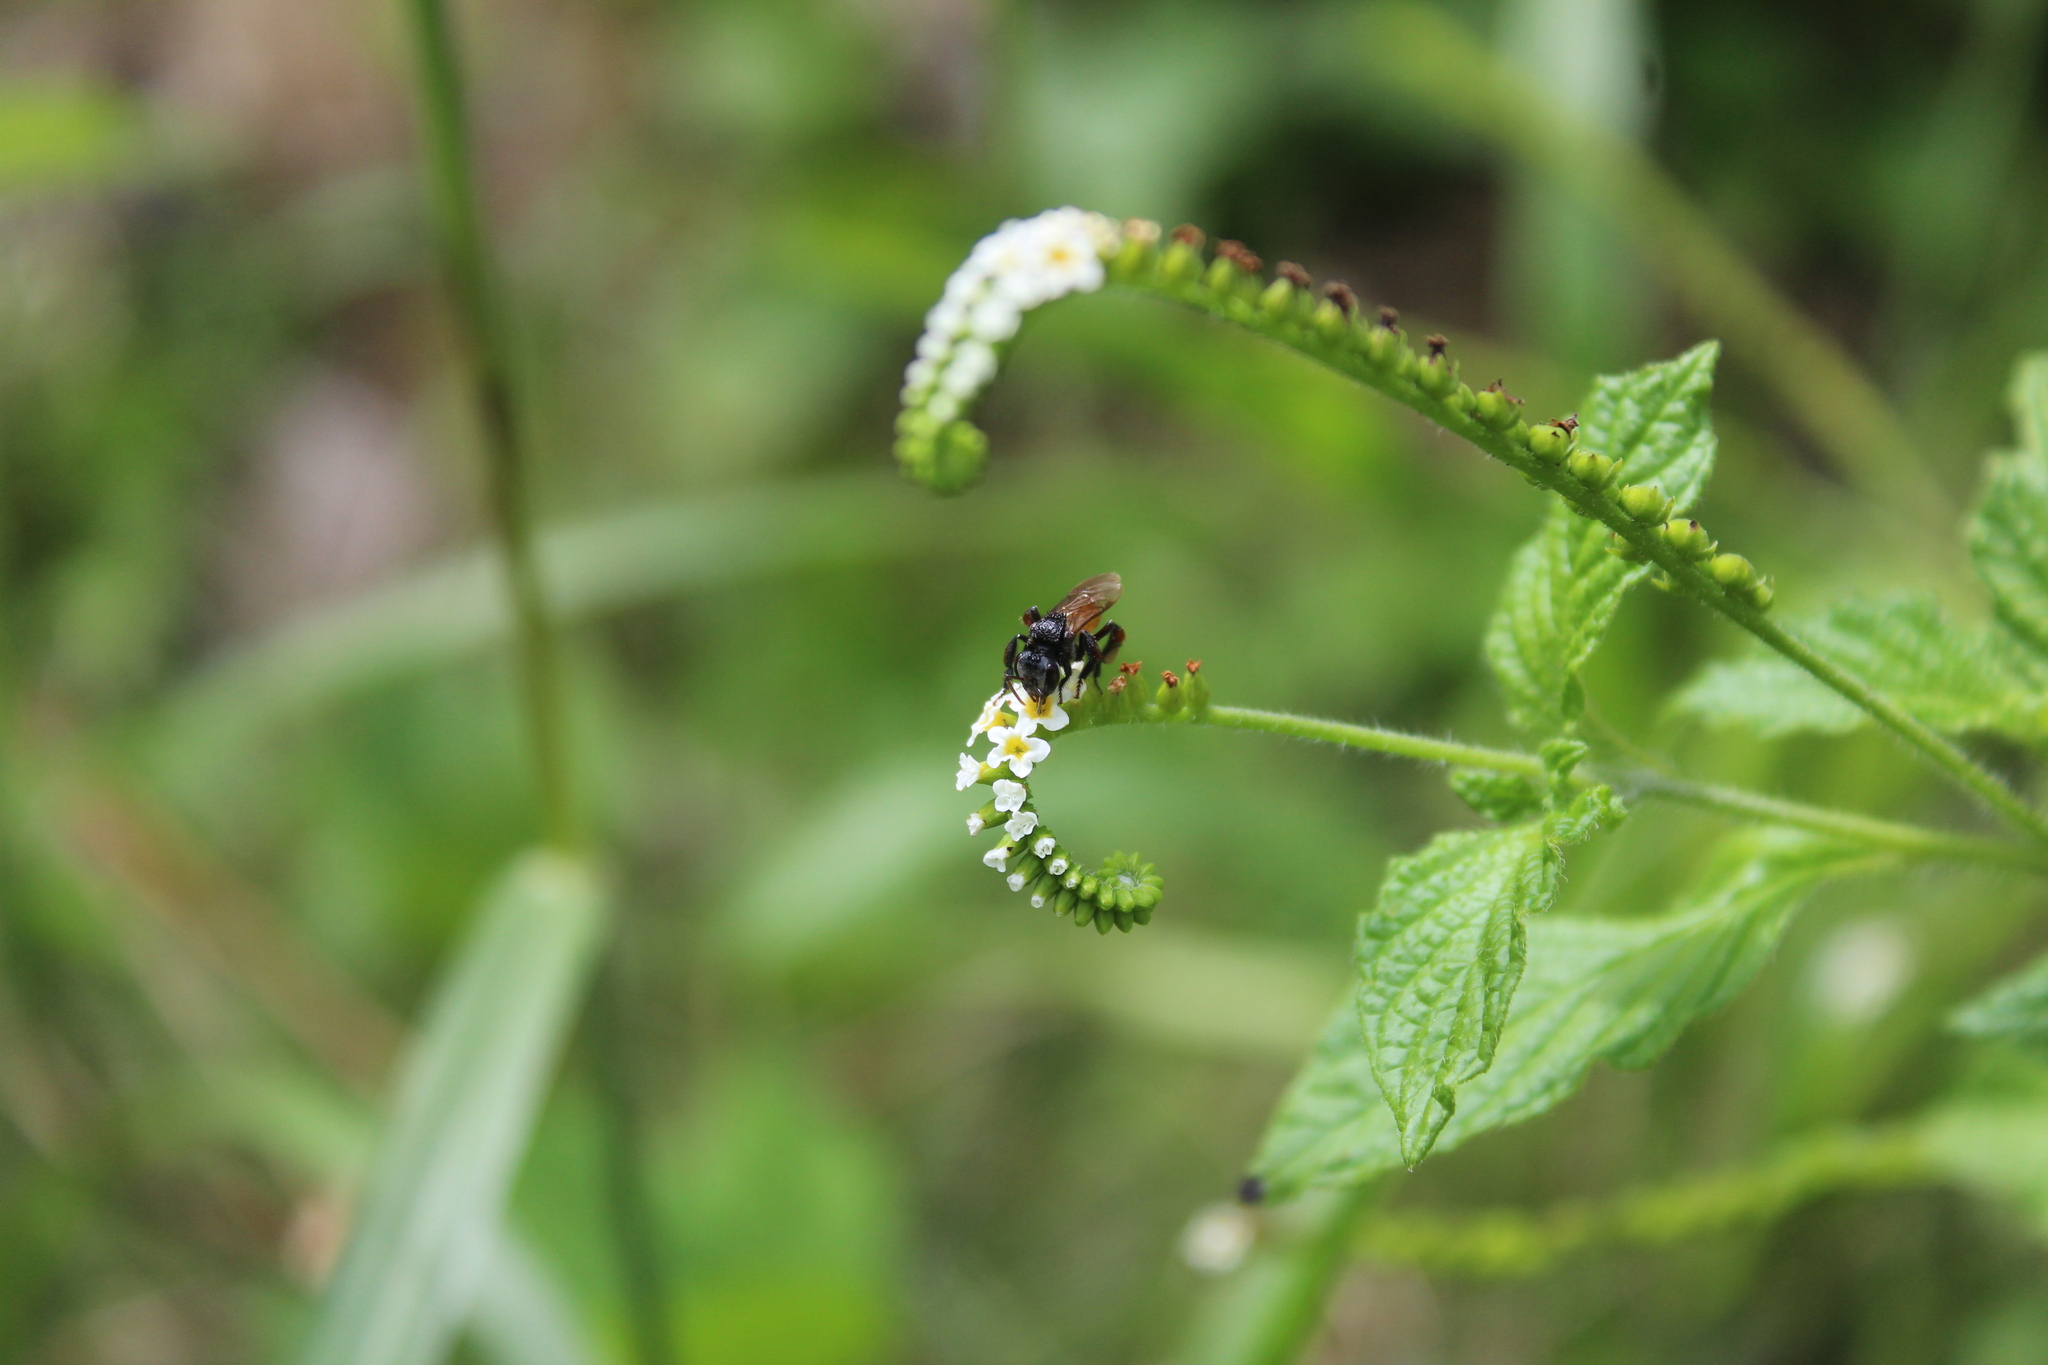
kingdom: Animalia
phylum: Arthropoda
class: Insecta
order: Hymenoptera
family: Apidae
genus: Trigona
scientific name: Trigona fulviventris
